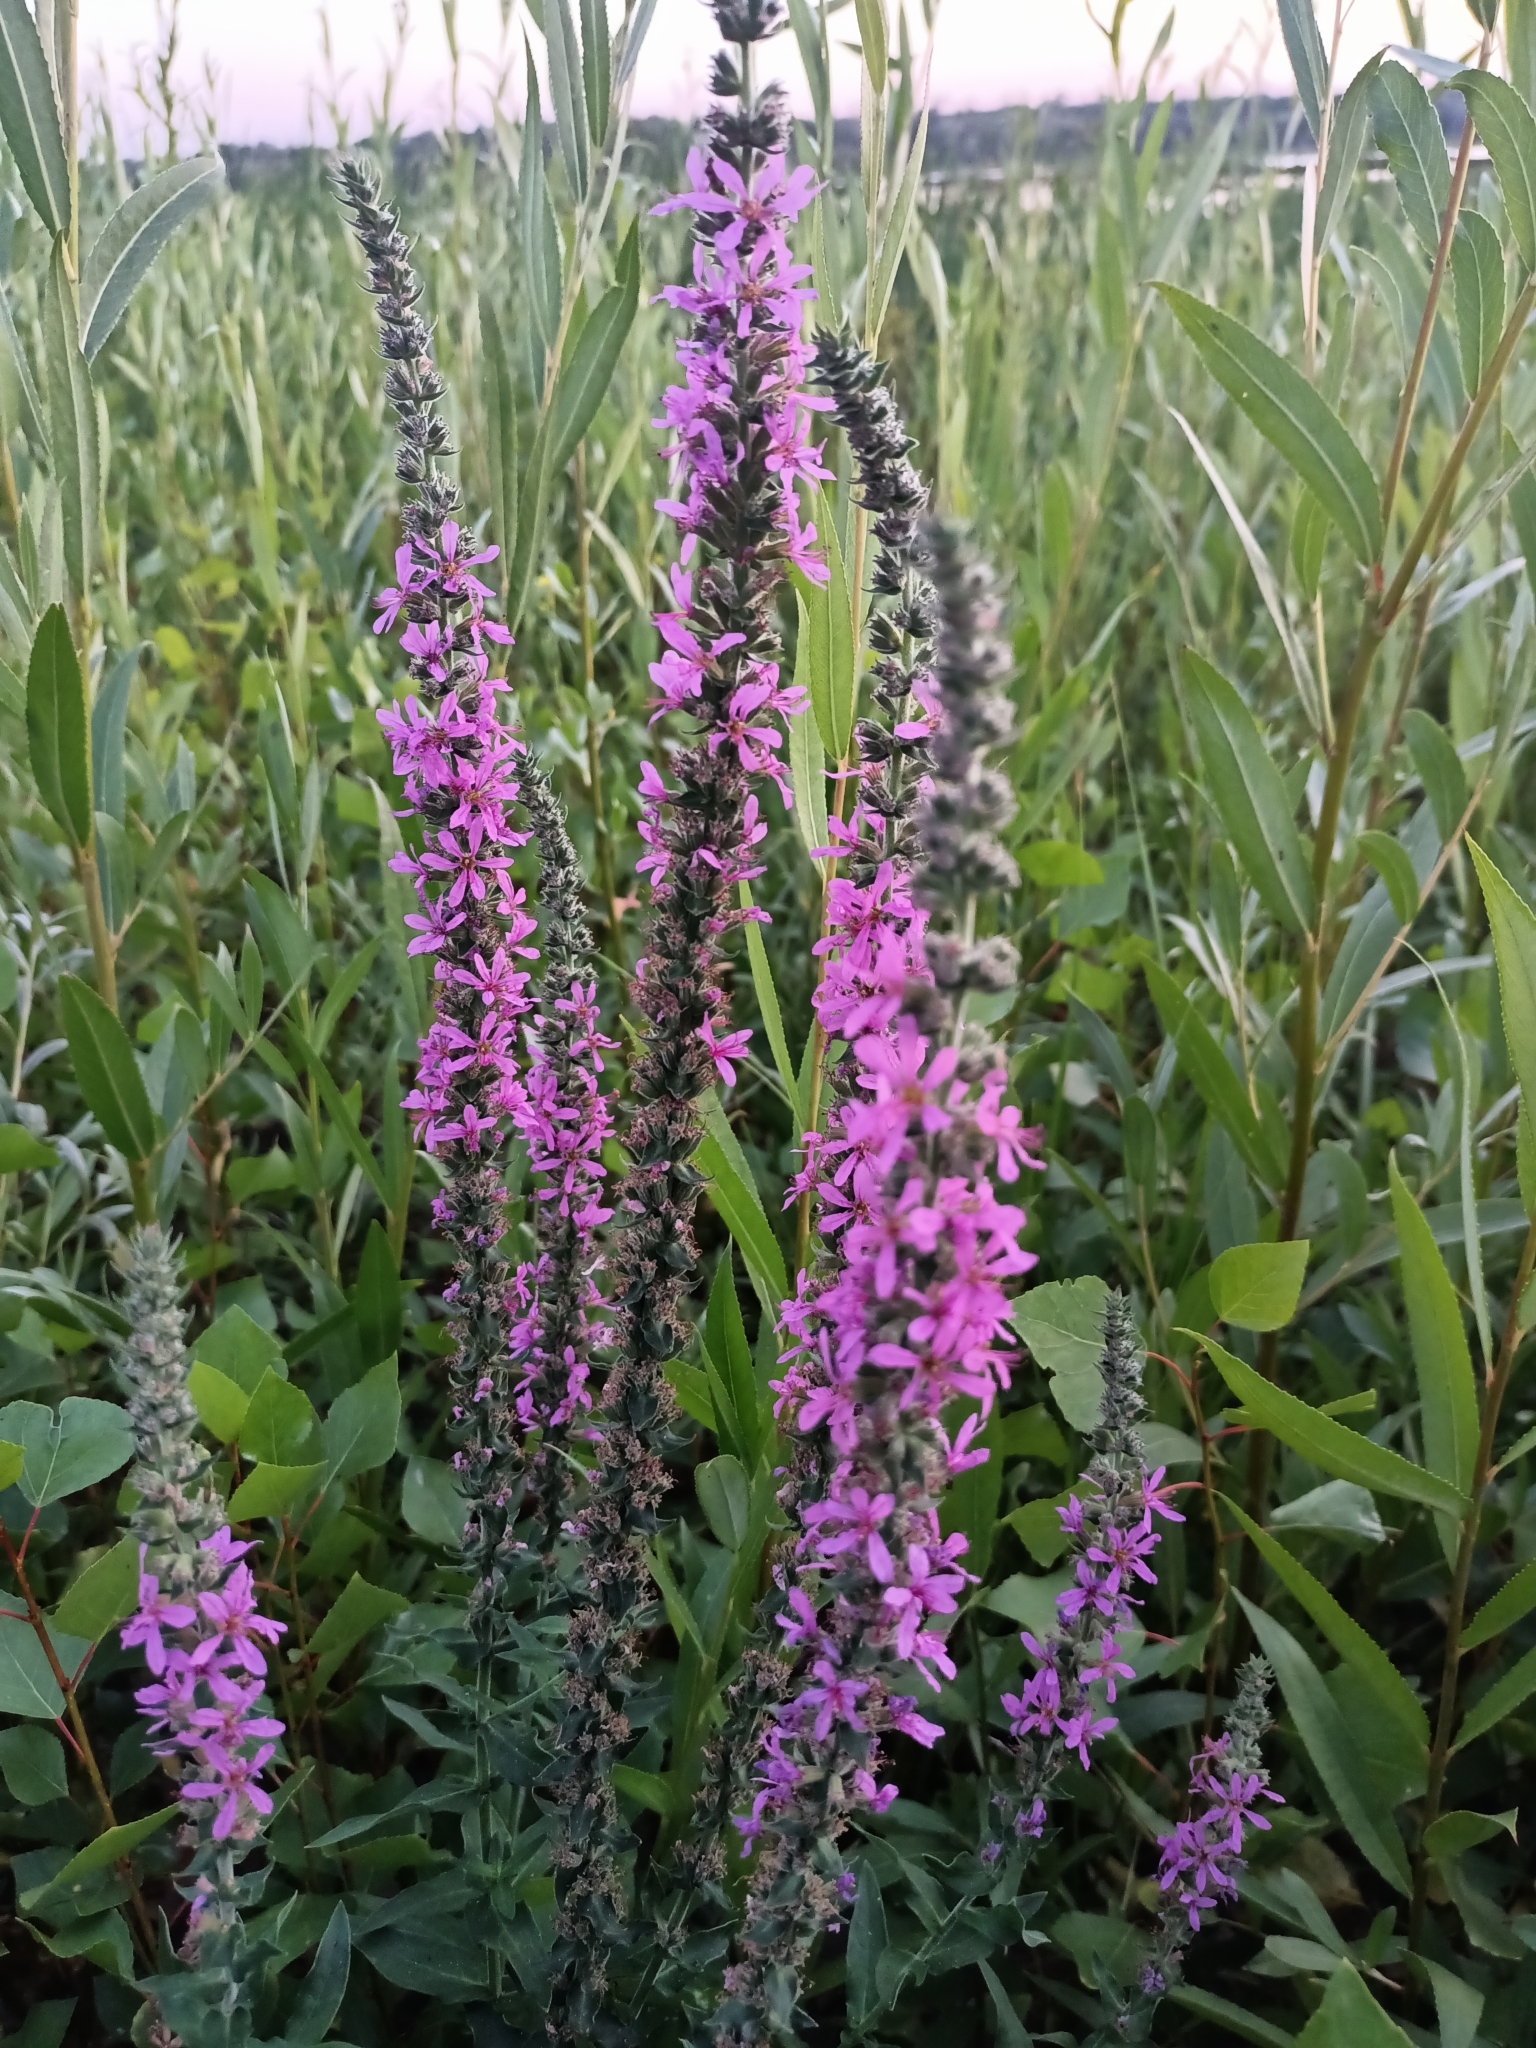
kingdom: Plantae
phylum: Tracheophyta
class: Magnoliopsida
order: Myrtales
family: Lythraceae
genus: Lythrum
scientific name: Lythrum salicaria
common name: Purple loosestrife
